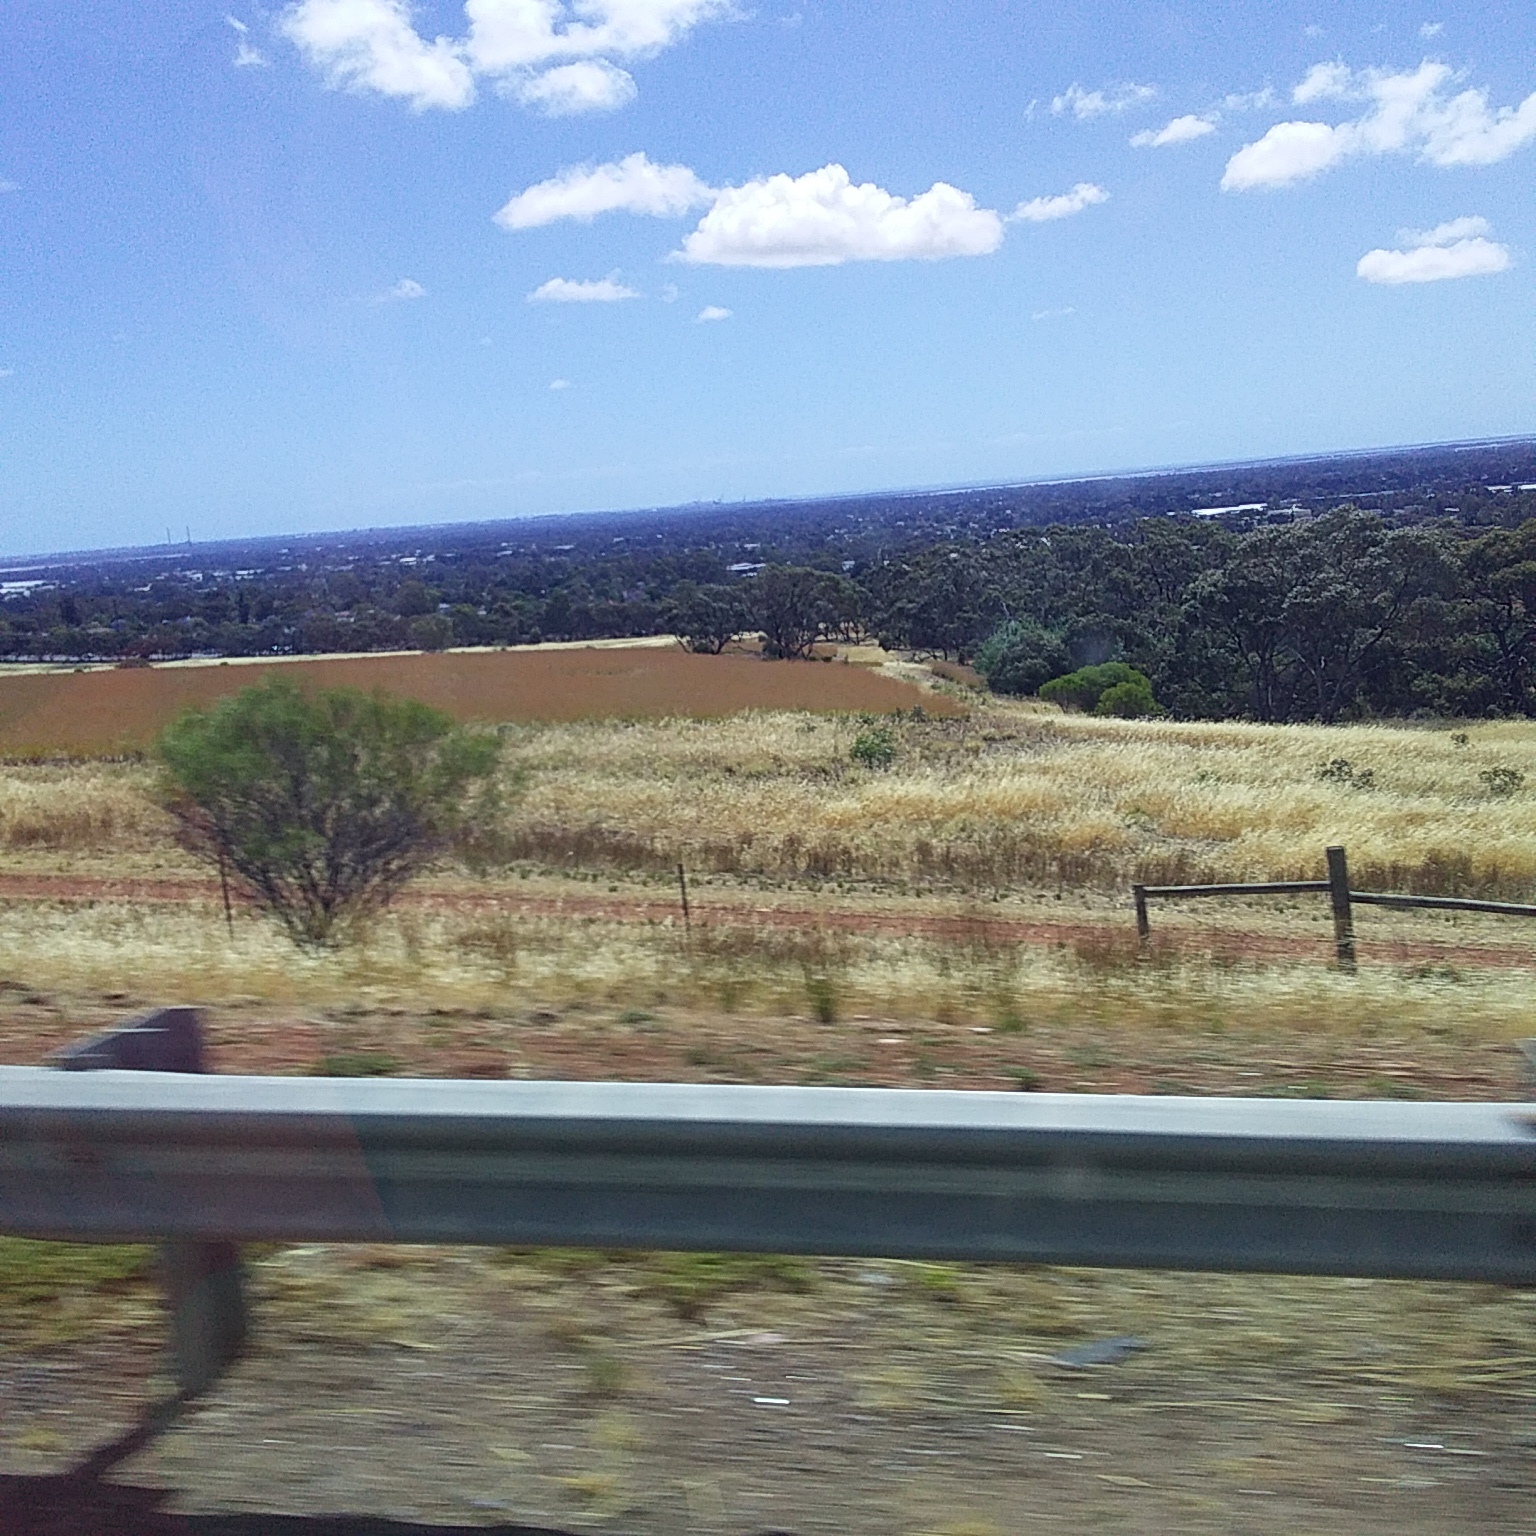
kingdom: Plantae
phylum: Tracheophyta
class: Liliopsida
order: Poales
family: Poaceae
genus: Hyparrhenia
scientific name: Hyparrhenia hirta
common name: Thatching grass
